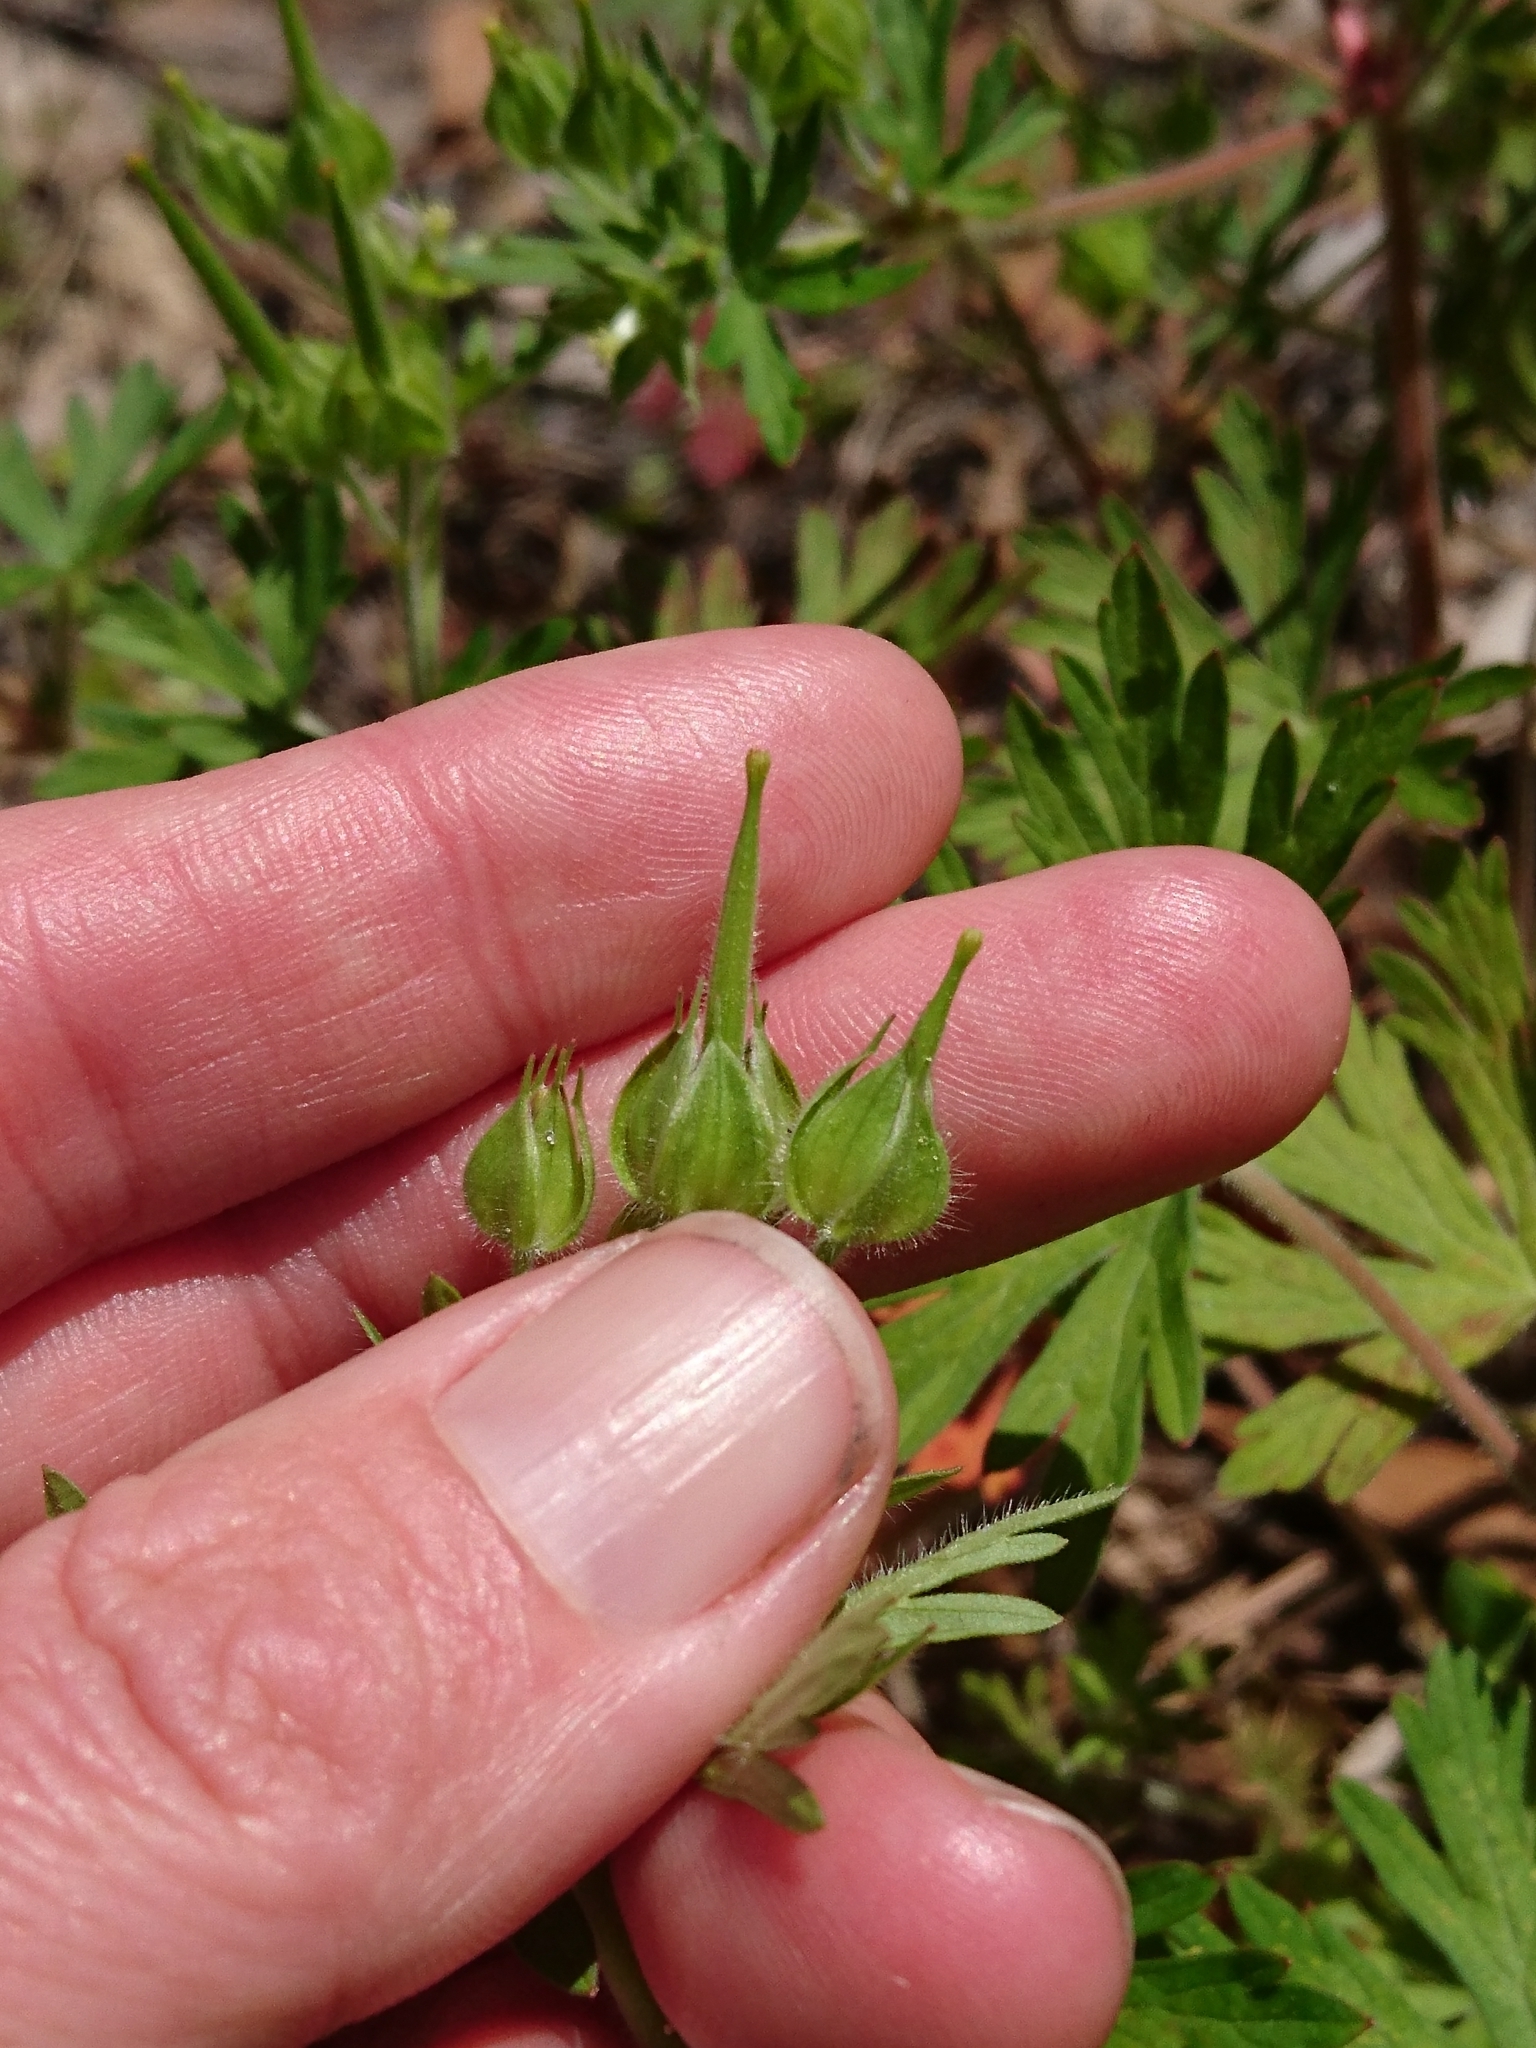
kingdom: Plantae
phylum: Tracheophyta
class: Magnoliopsida
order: Geraniales
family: Geraniaceae
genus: Geranium
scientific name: Geranium carolinianum
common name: Carolina crane's-bill
